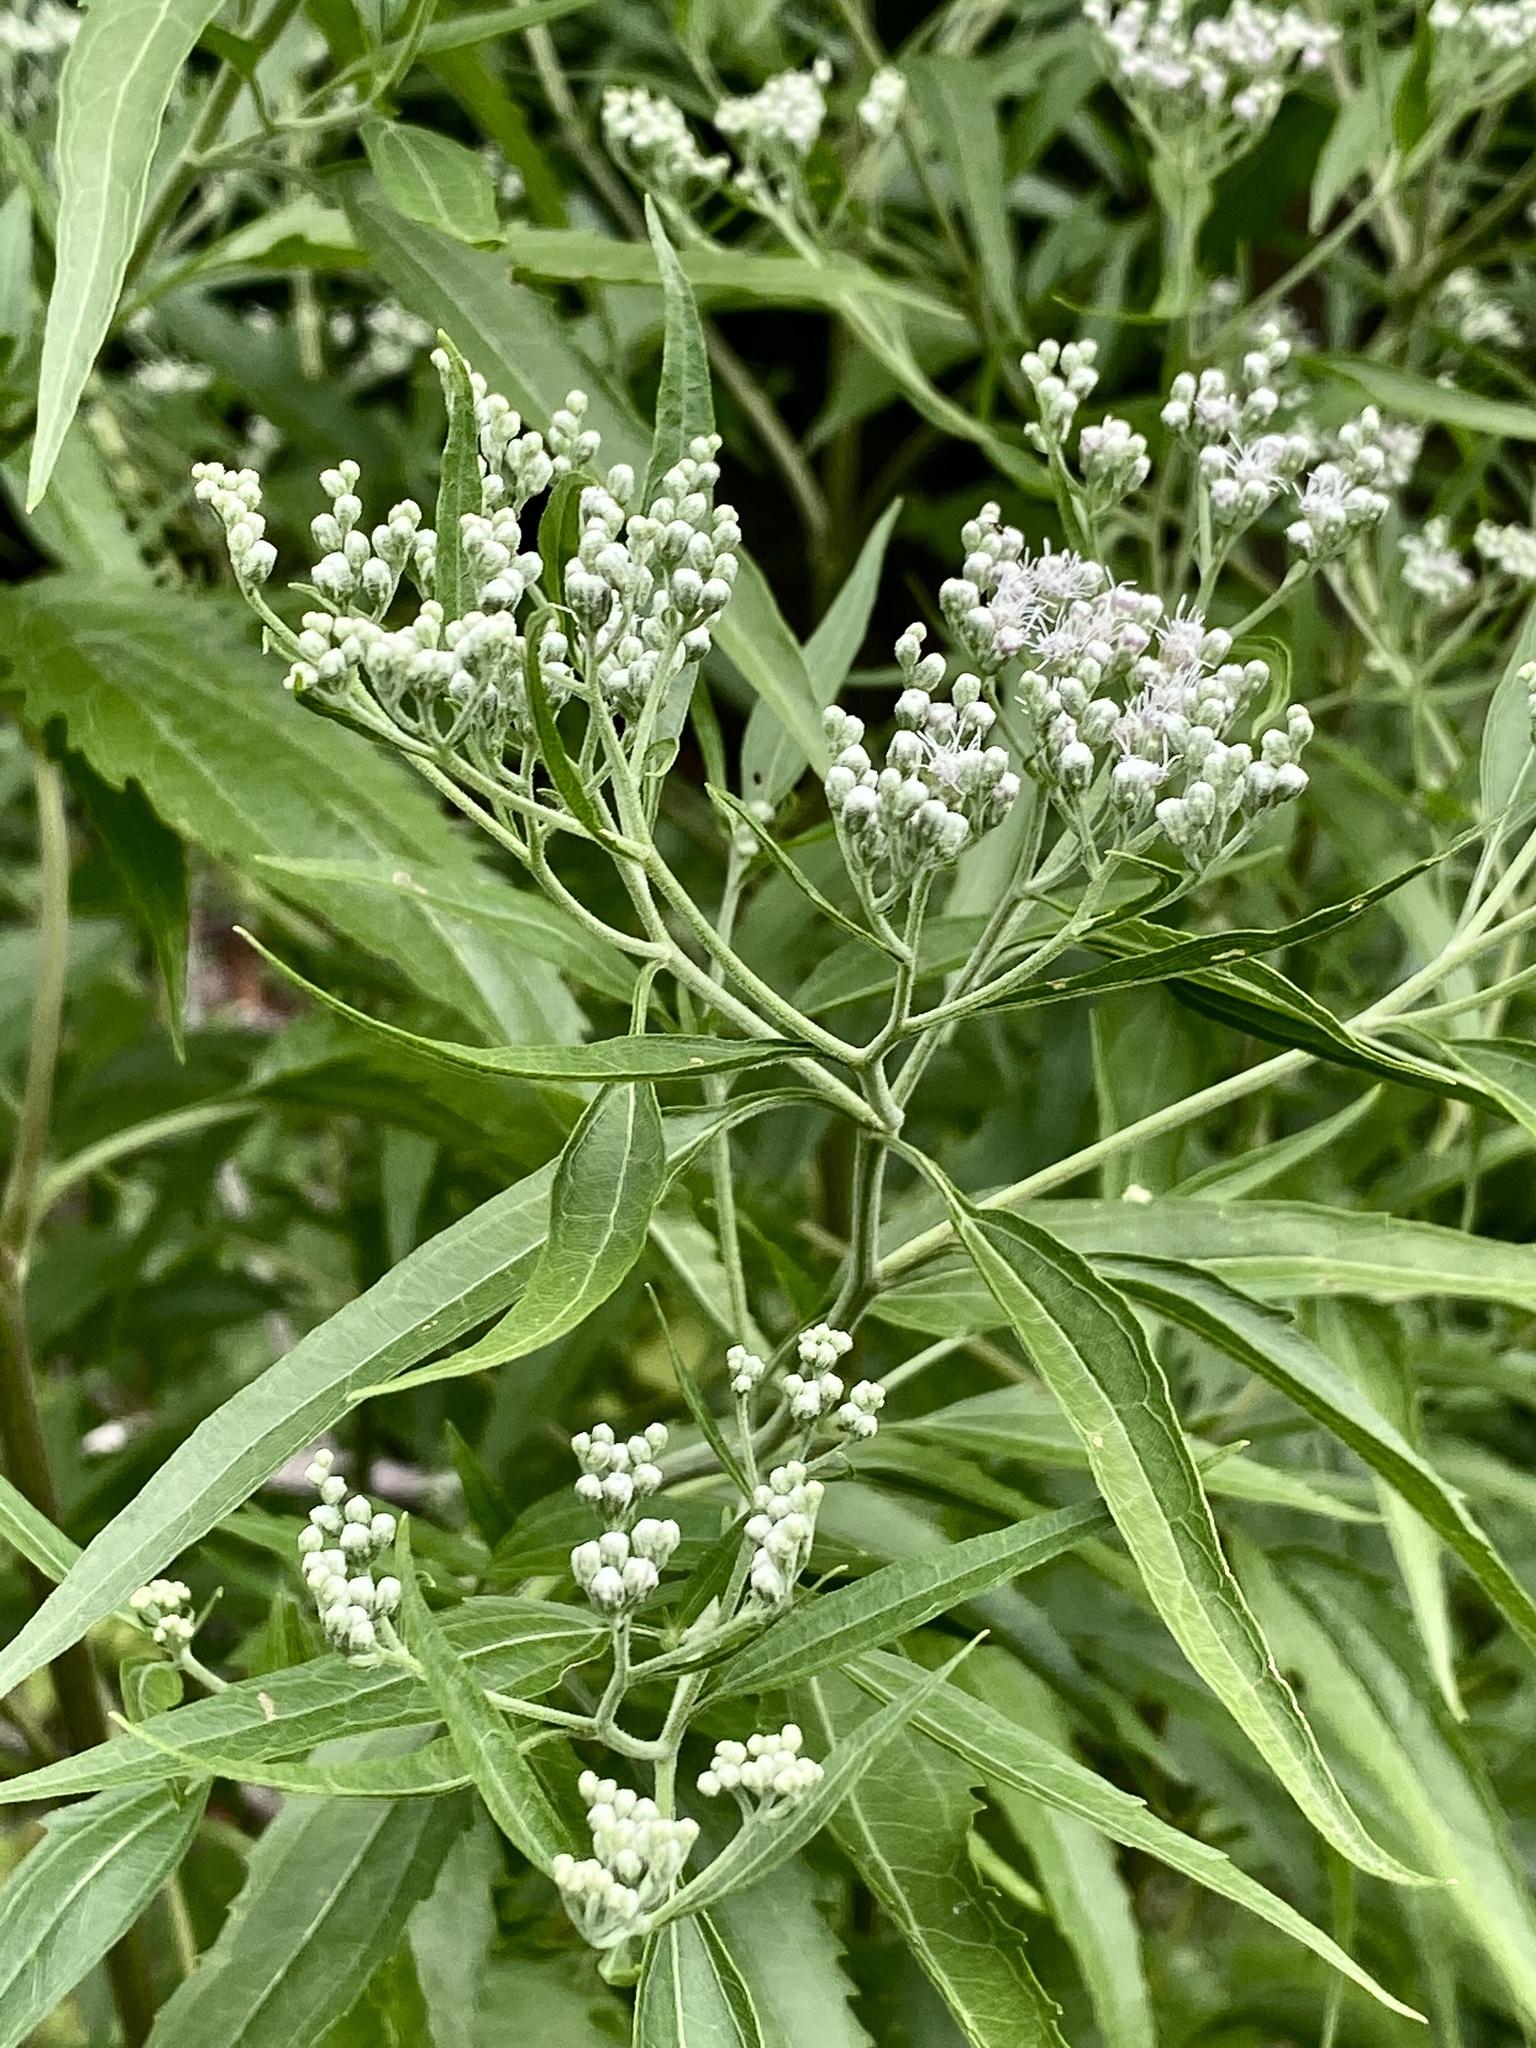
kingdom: Plantae
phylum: Tracheophyta
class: Magnoliopsida
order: Asterales
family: Asteraceae
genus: Eupatorium
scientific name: Eupatorium serotinum
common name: Late boneset
